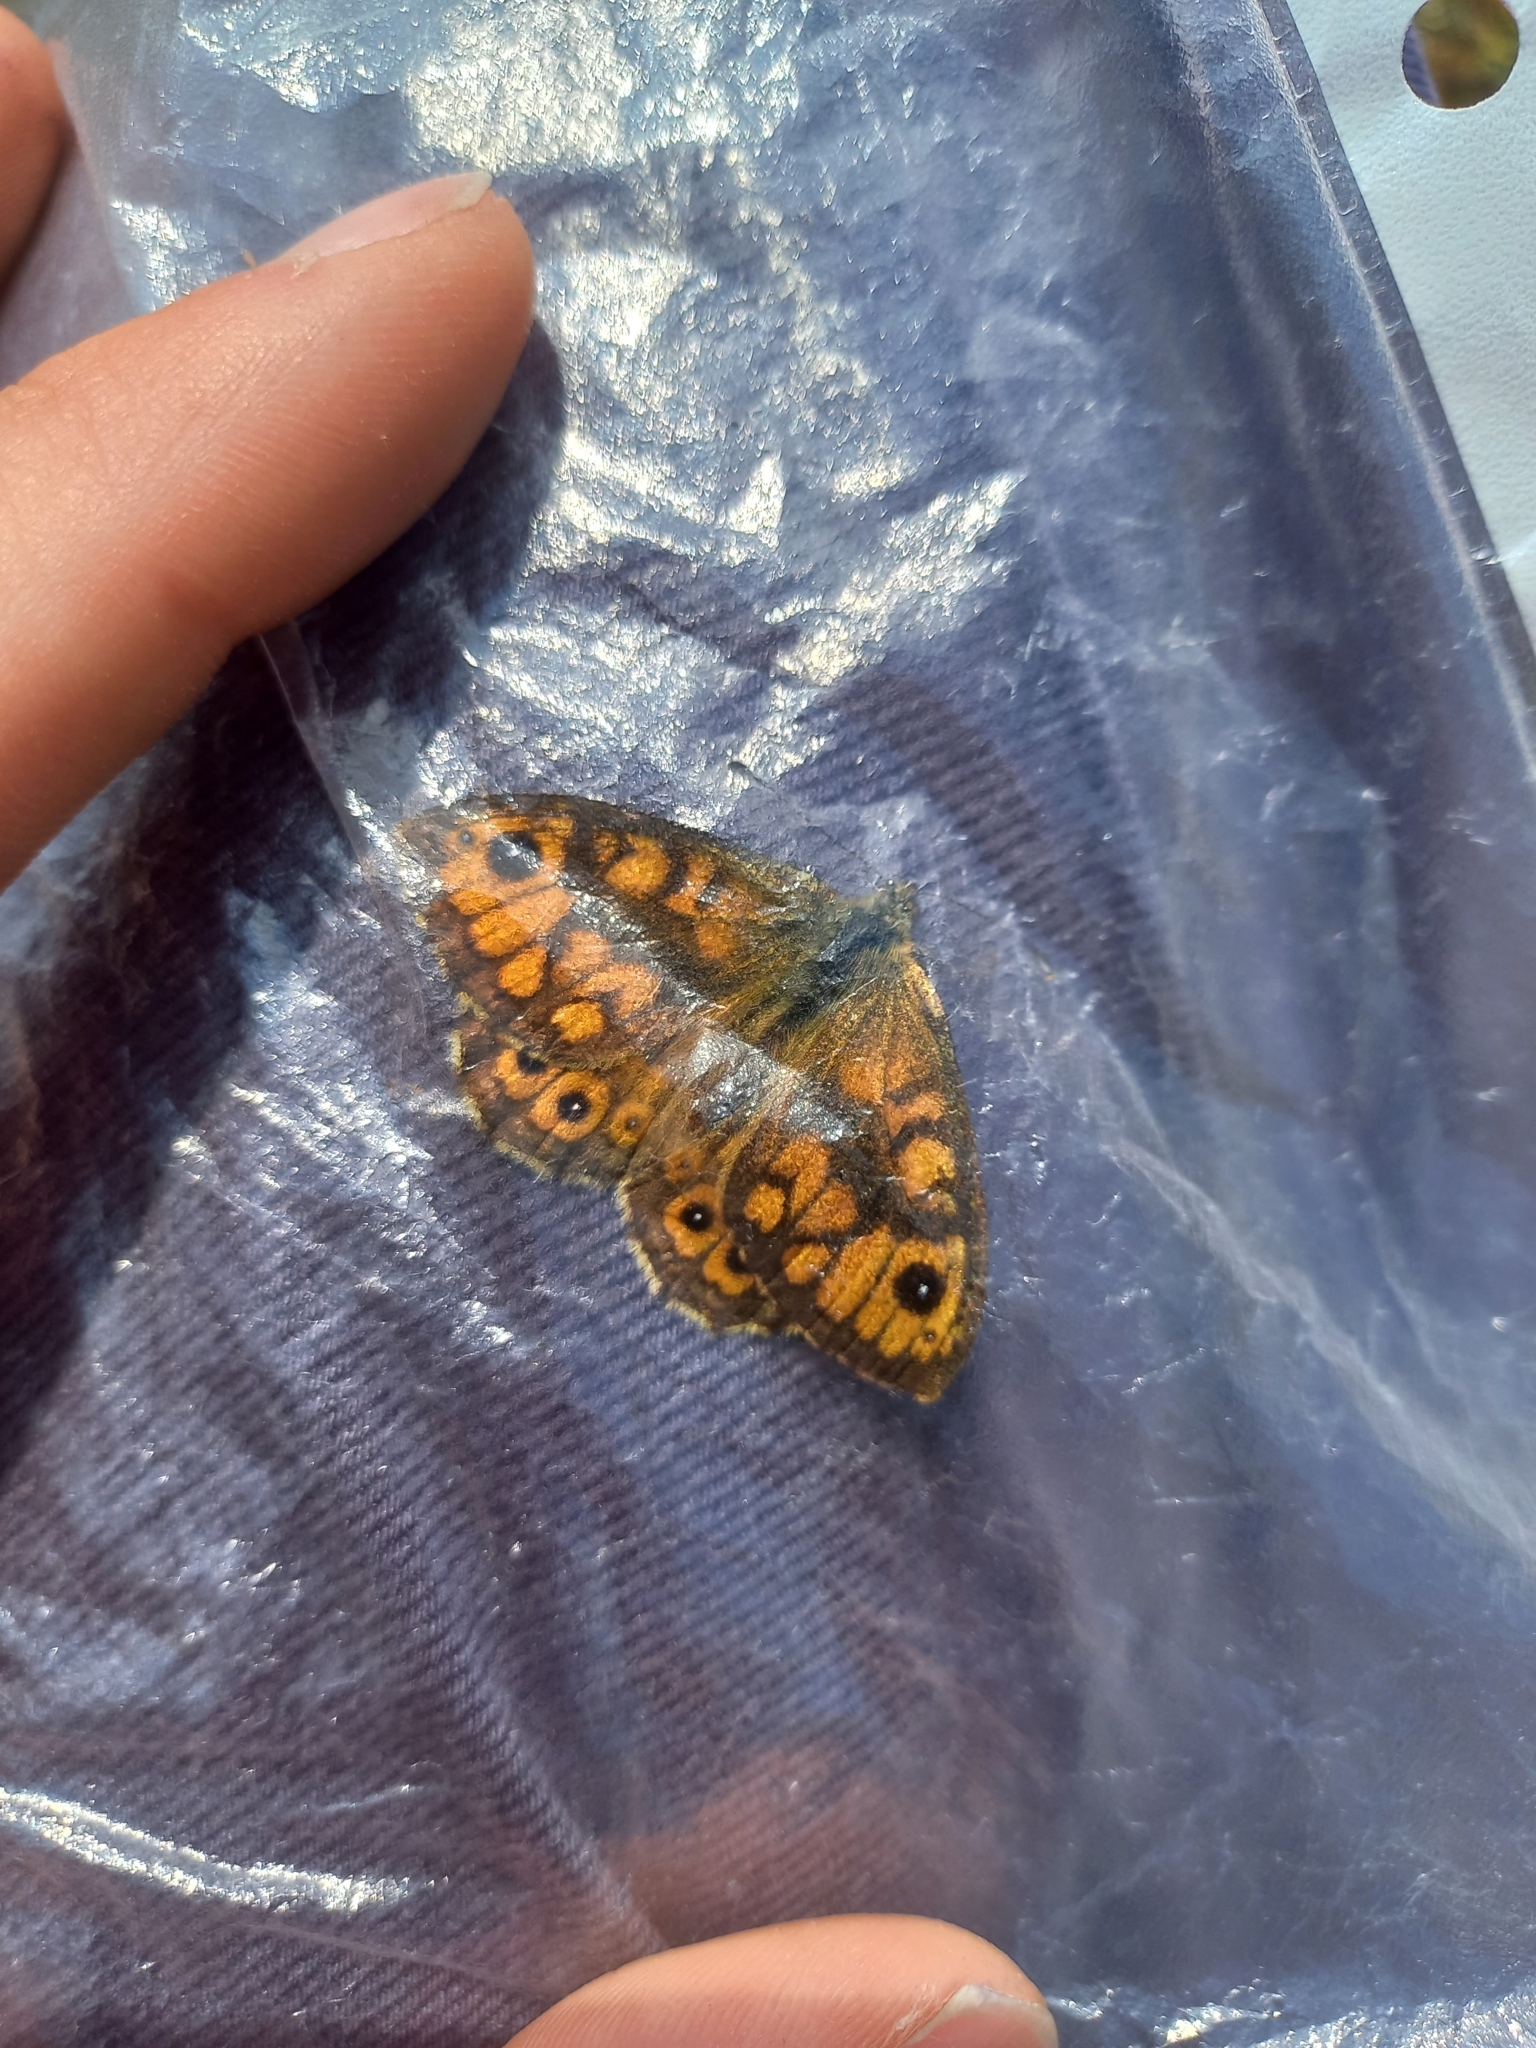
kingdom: Animalia
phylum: Arthropoda
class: Insecta
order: Lepidoptera
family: Nymphalidae
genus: Pararge
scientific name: Pararge Lasiommata megera
